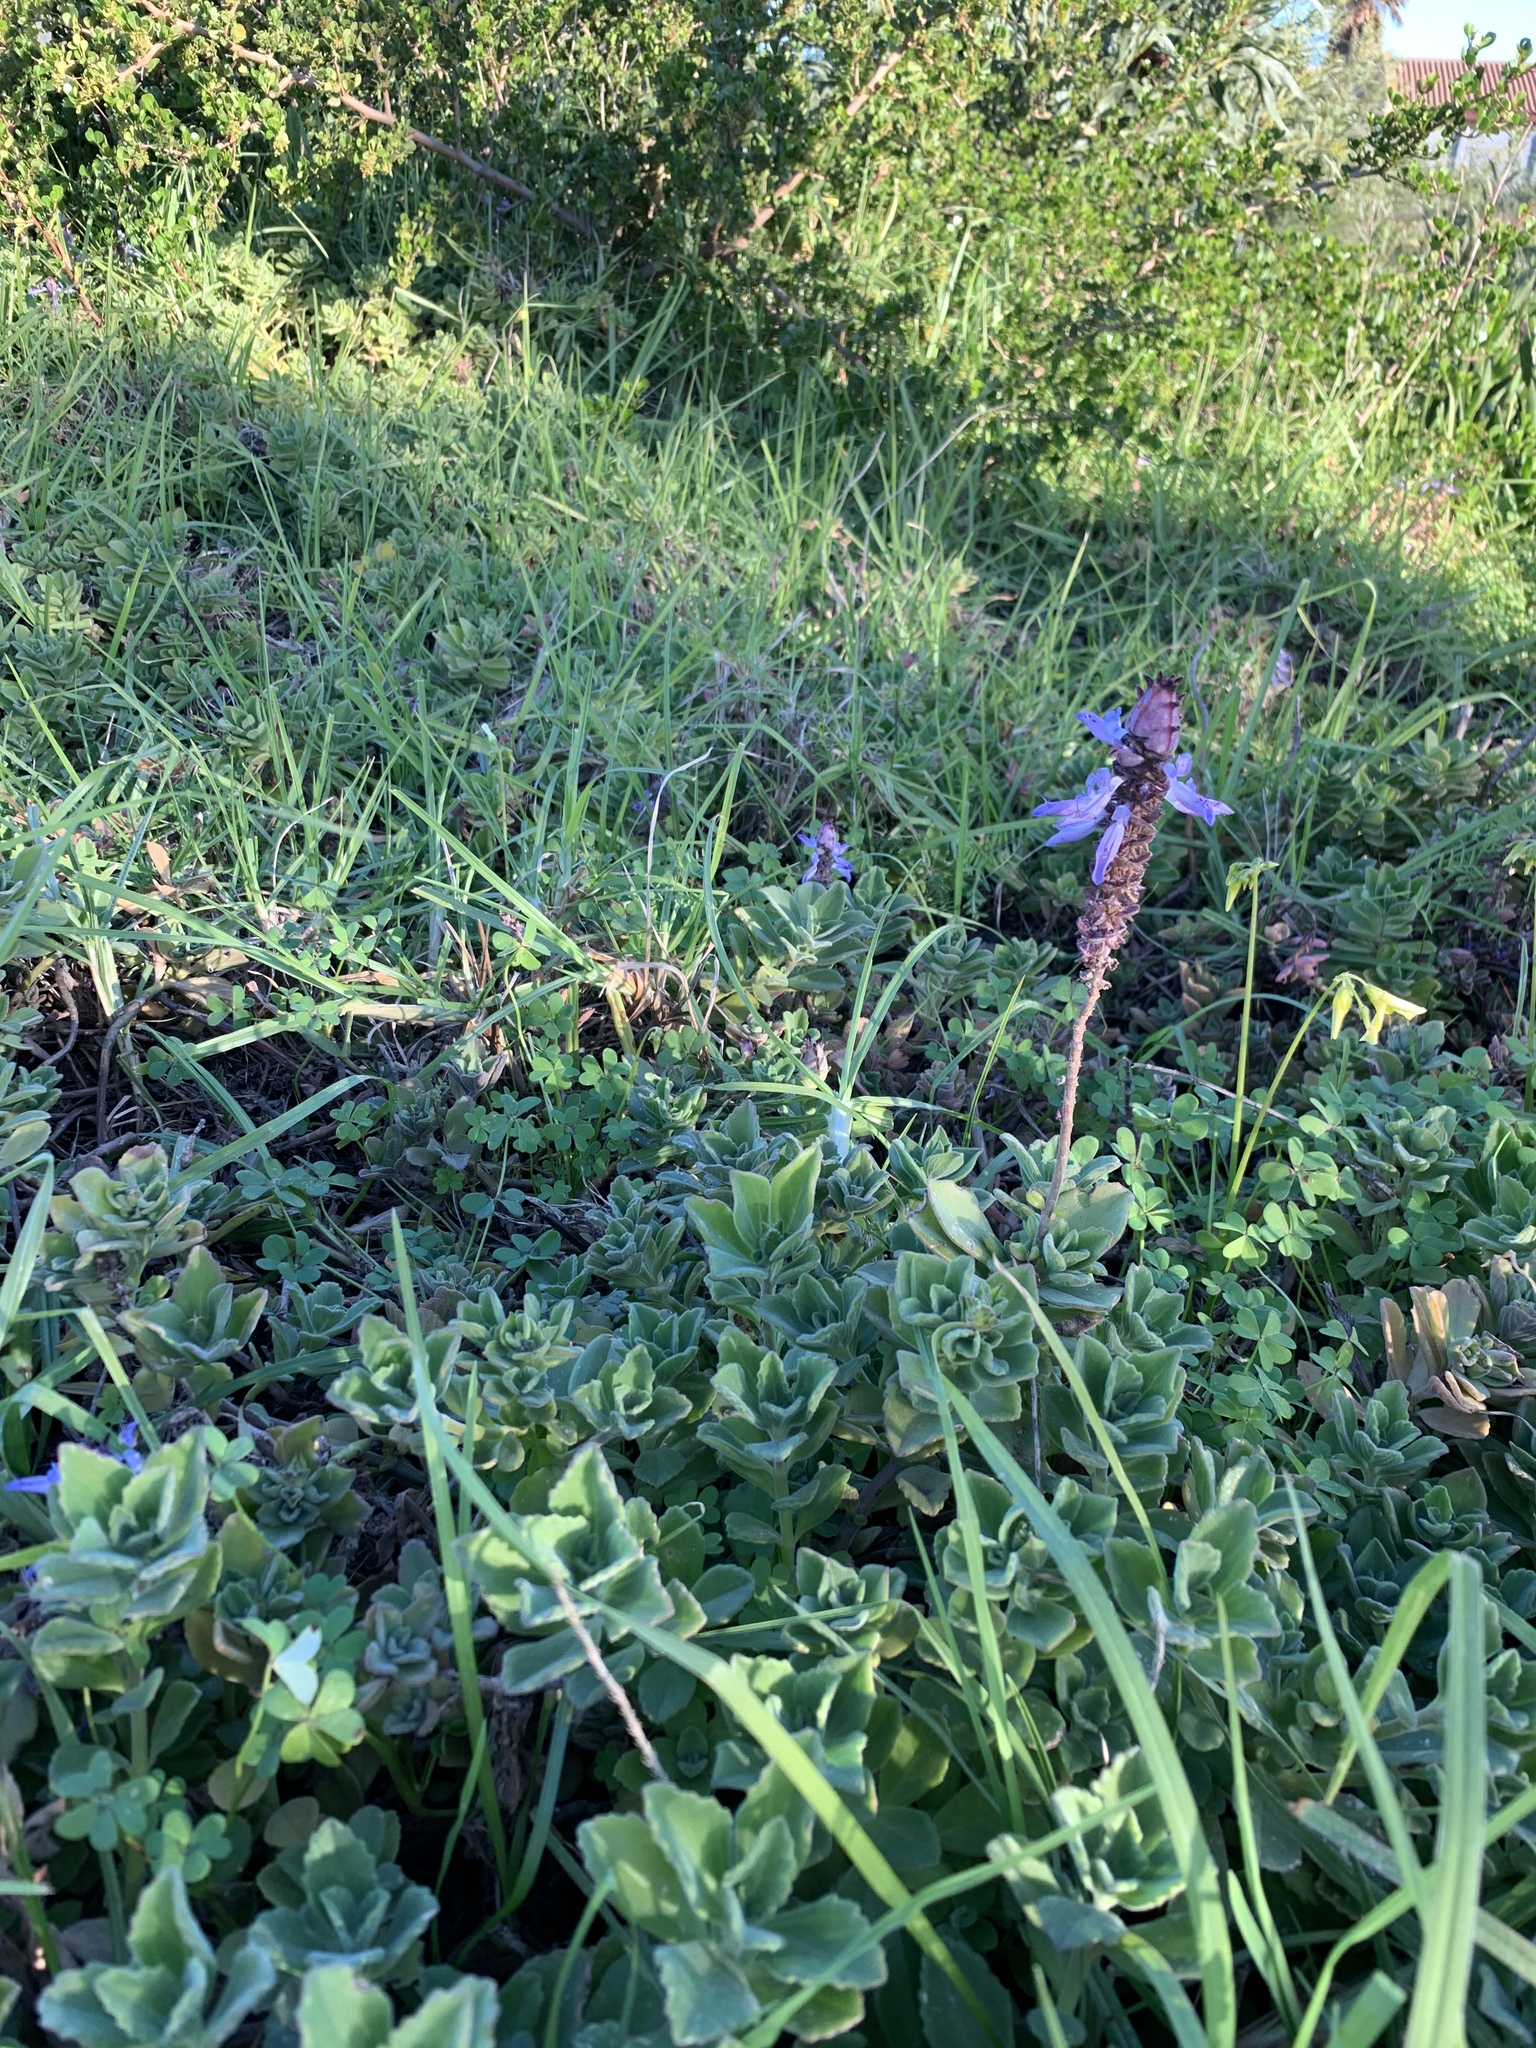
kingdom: Plantae
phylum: Tracheophyta
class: Magnoliopsida
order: Lamiales
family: Lamiaceae
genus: Coleus
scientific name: Coleus neochilus
